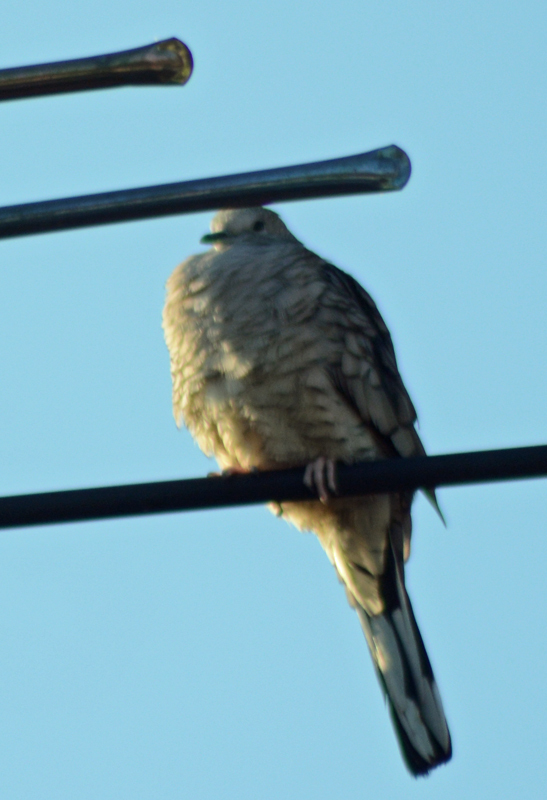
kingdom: Animalia
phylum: Chordata
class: Aves
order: Columbiformes
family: Columbidae
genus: Columbina
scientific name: Columbina inca
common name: Inca dove
